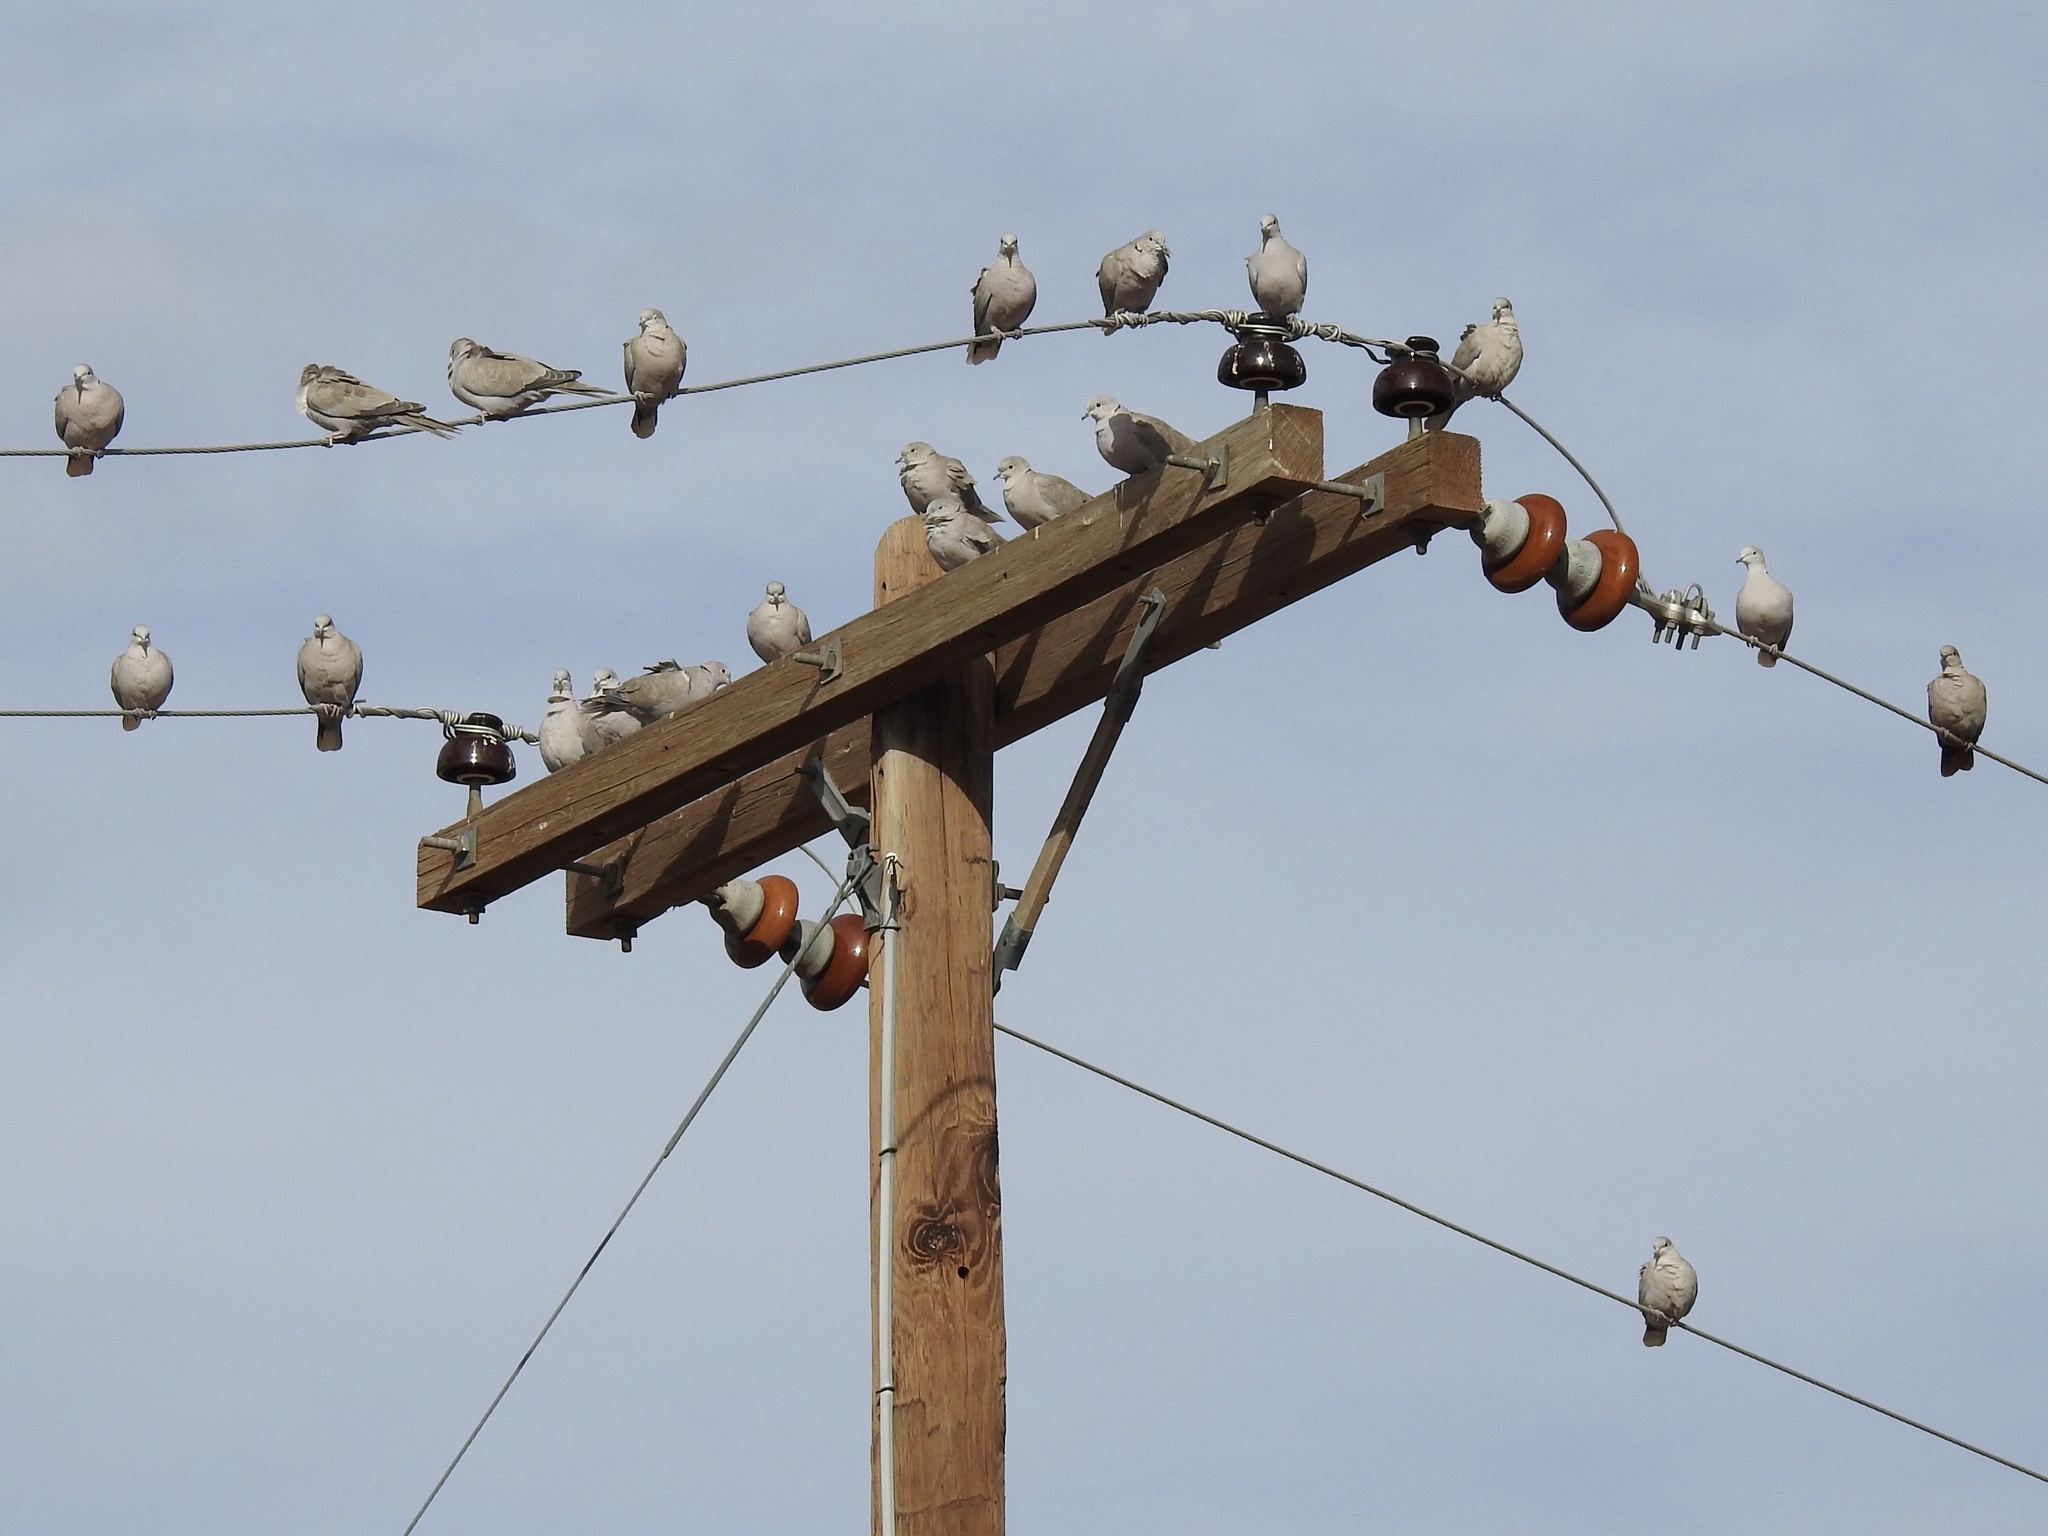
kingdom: Animalia
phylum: Chordata
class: Aves
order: Columbiformes
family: Columbidae
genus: Streptopelia
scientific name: Streptopelia decaocto
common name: Eurasian collared dove
